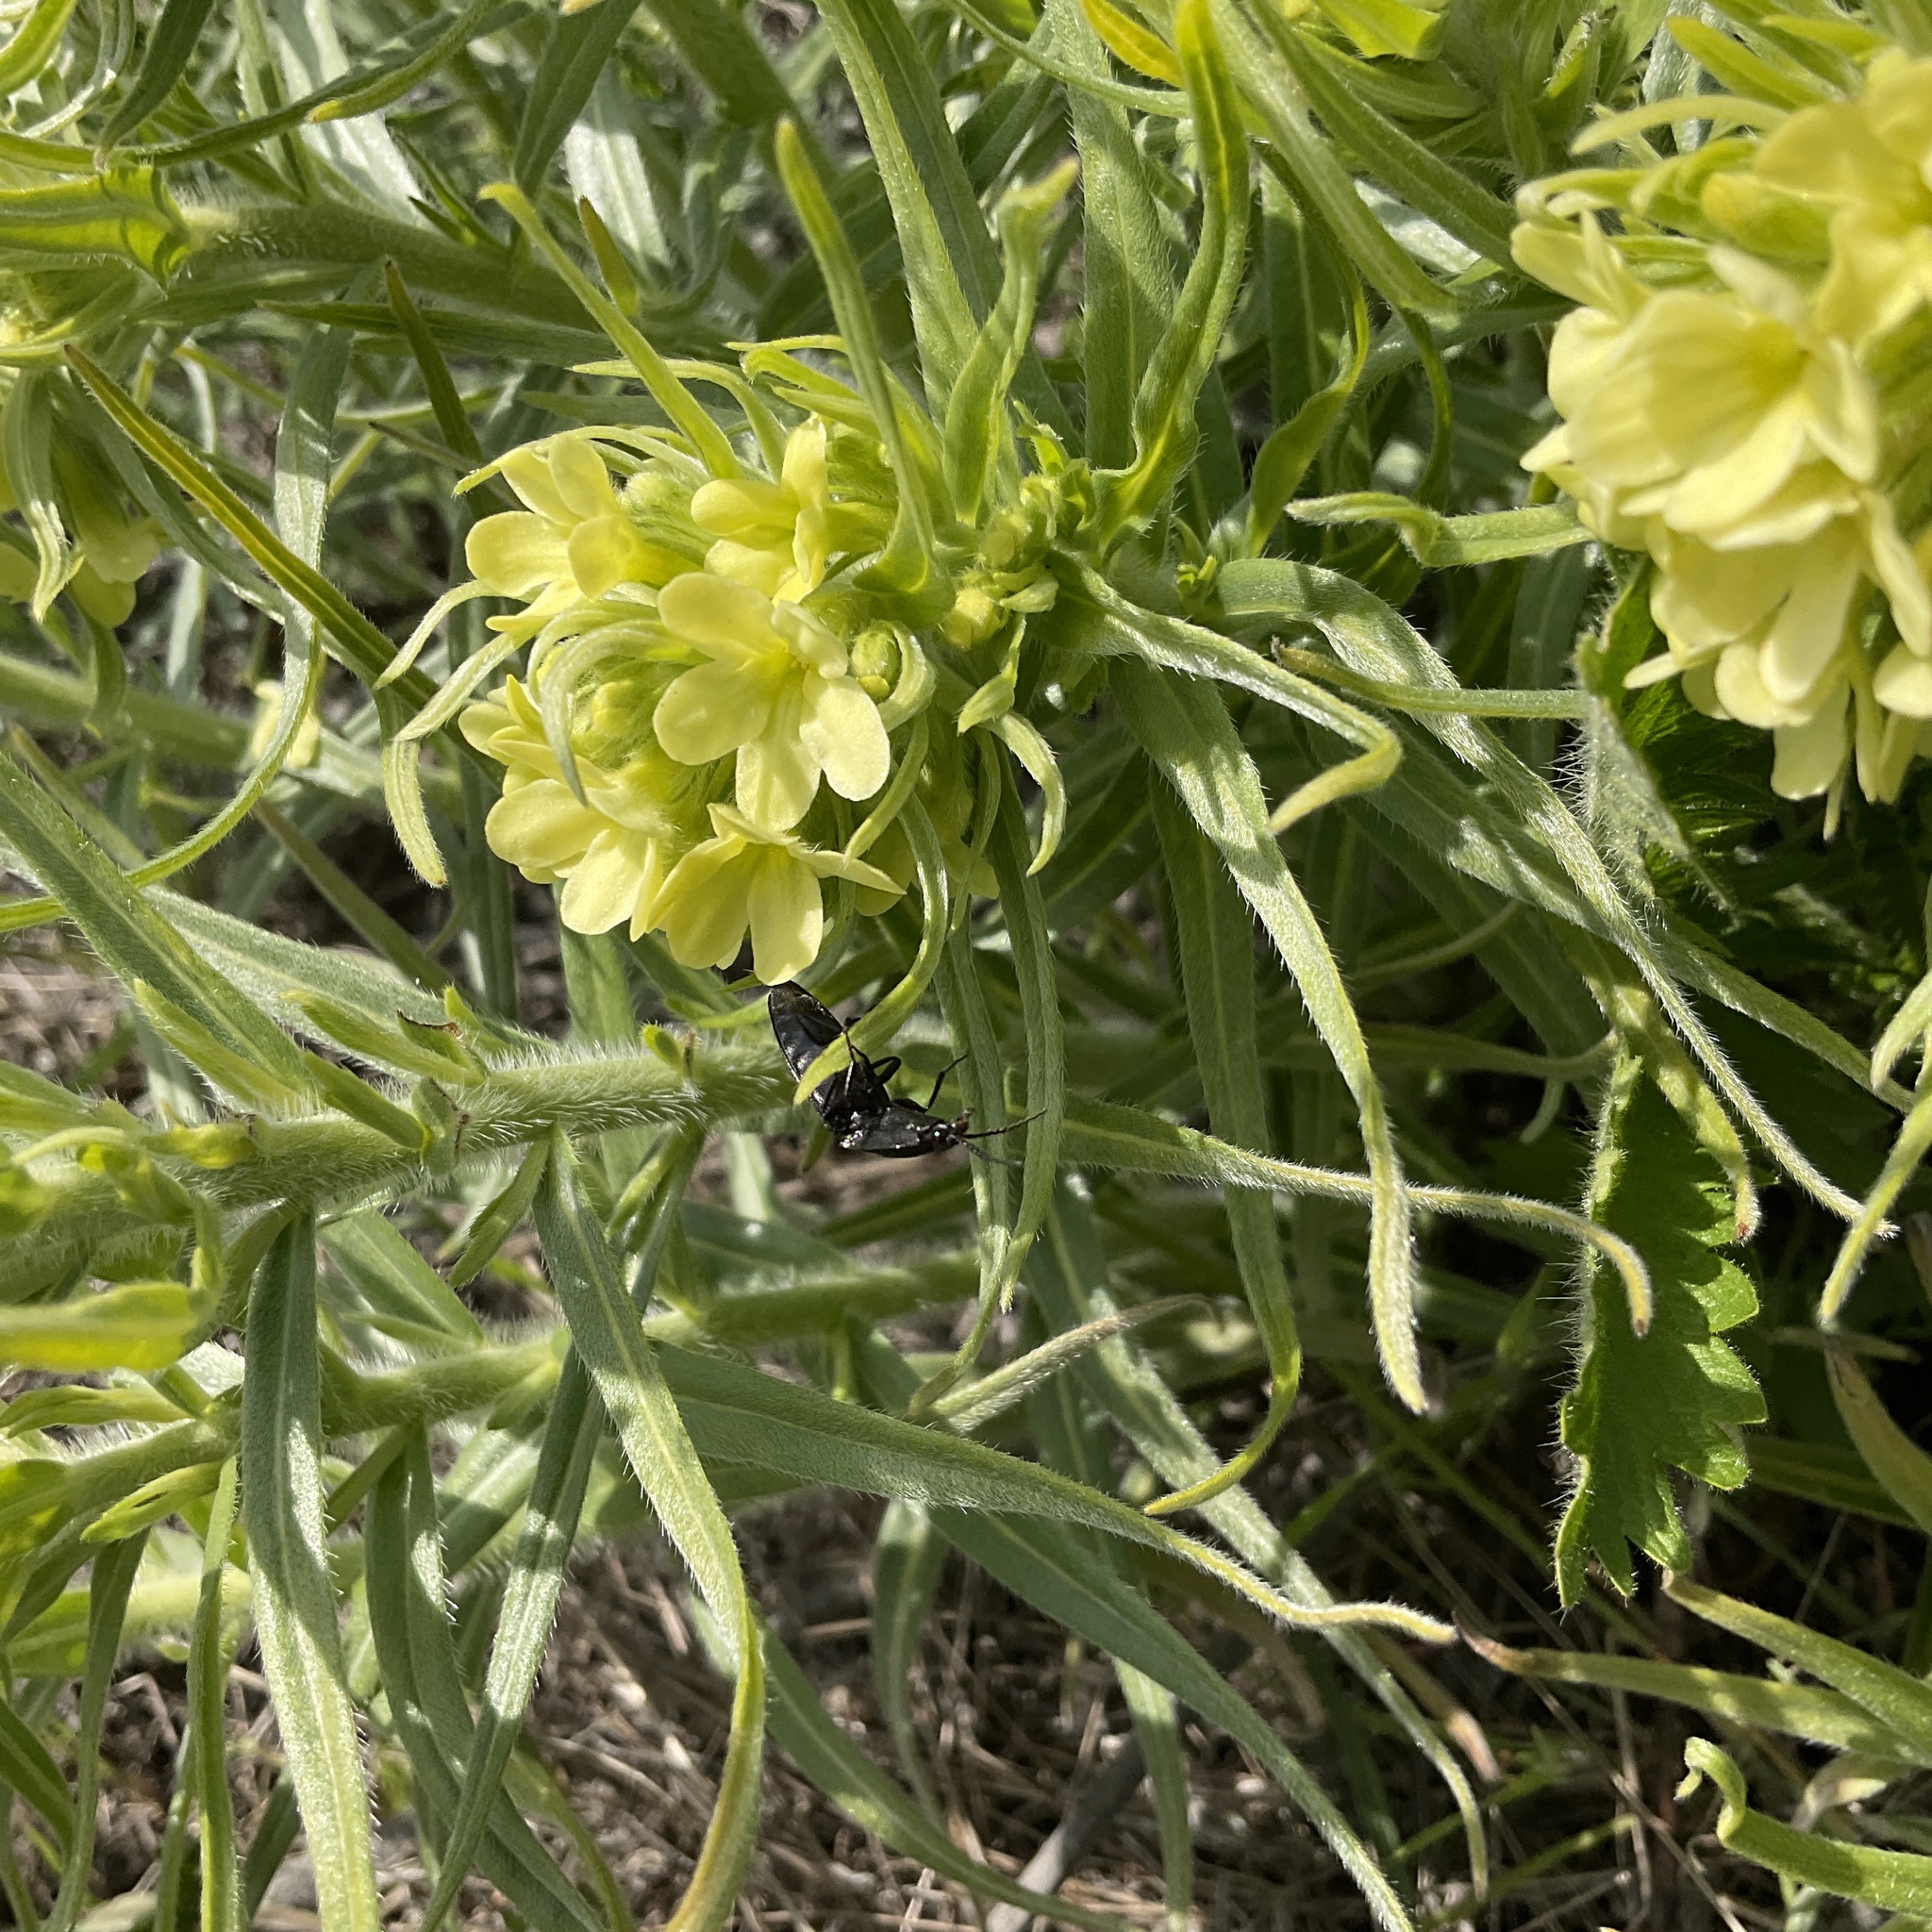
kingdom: Plantae
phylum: Tracheophyta
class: Magnoliopsida
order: Boraginales
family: Boraginaceae
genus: Lithospermum
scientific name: Lithospermum ruderale
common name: Western gromwell
